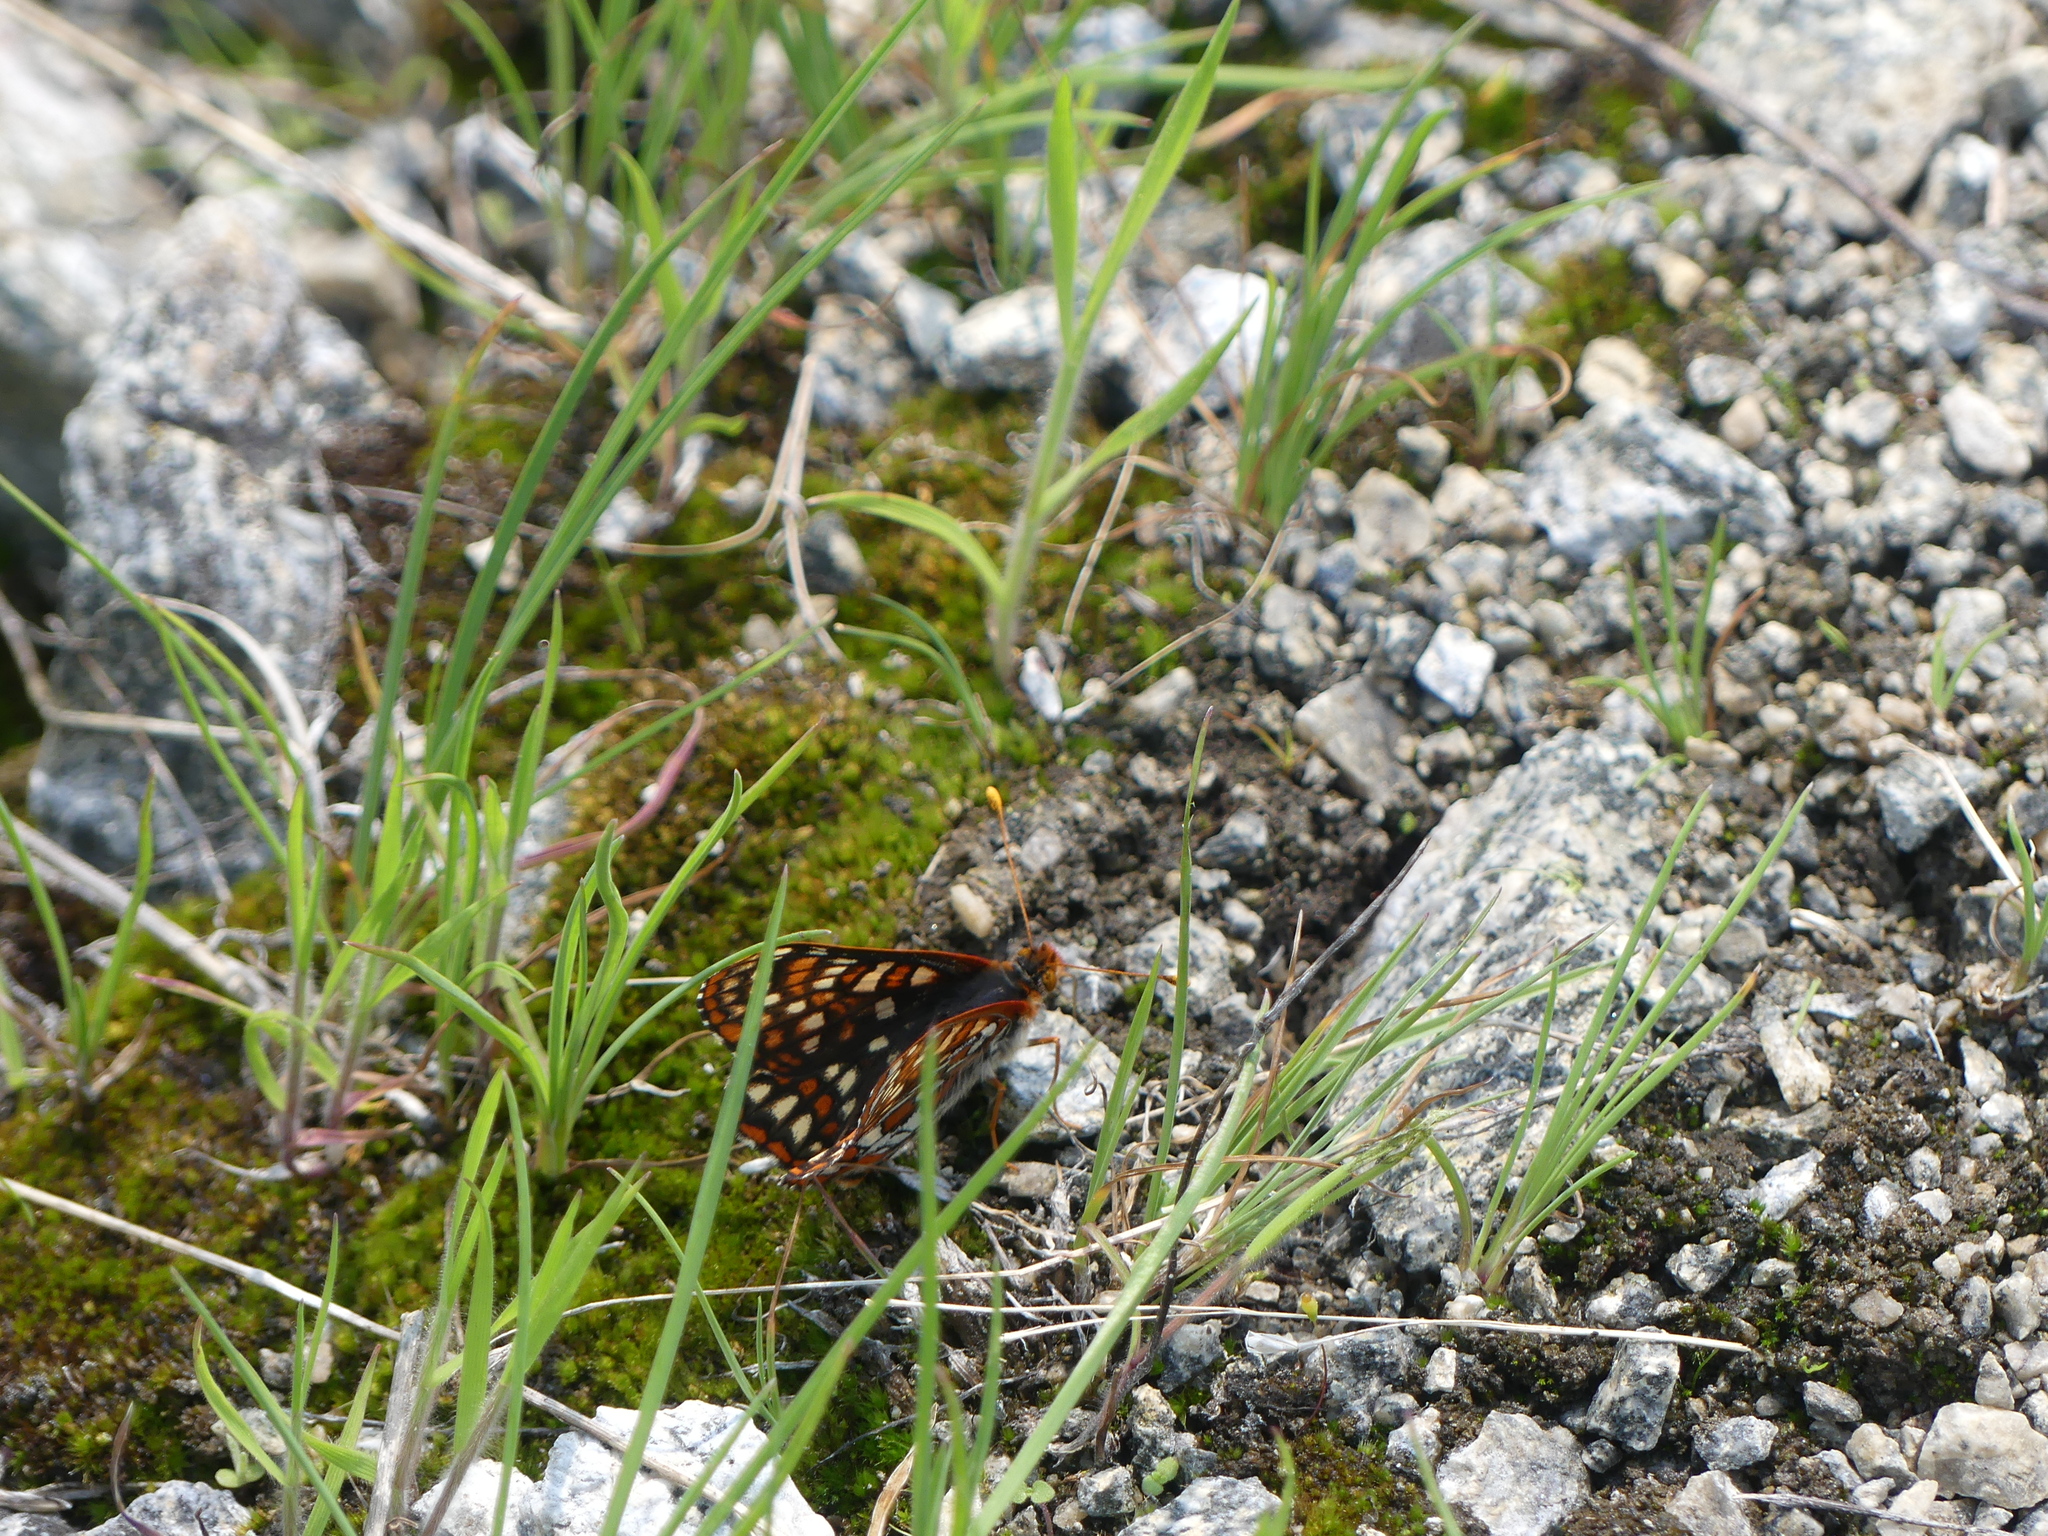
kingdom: Animalia
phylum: Arthropoda
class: Insecta
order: Lepidoptera
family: Nymphalidae
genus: Occidryas
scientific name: Occidryas anicia
